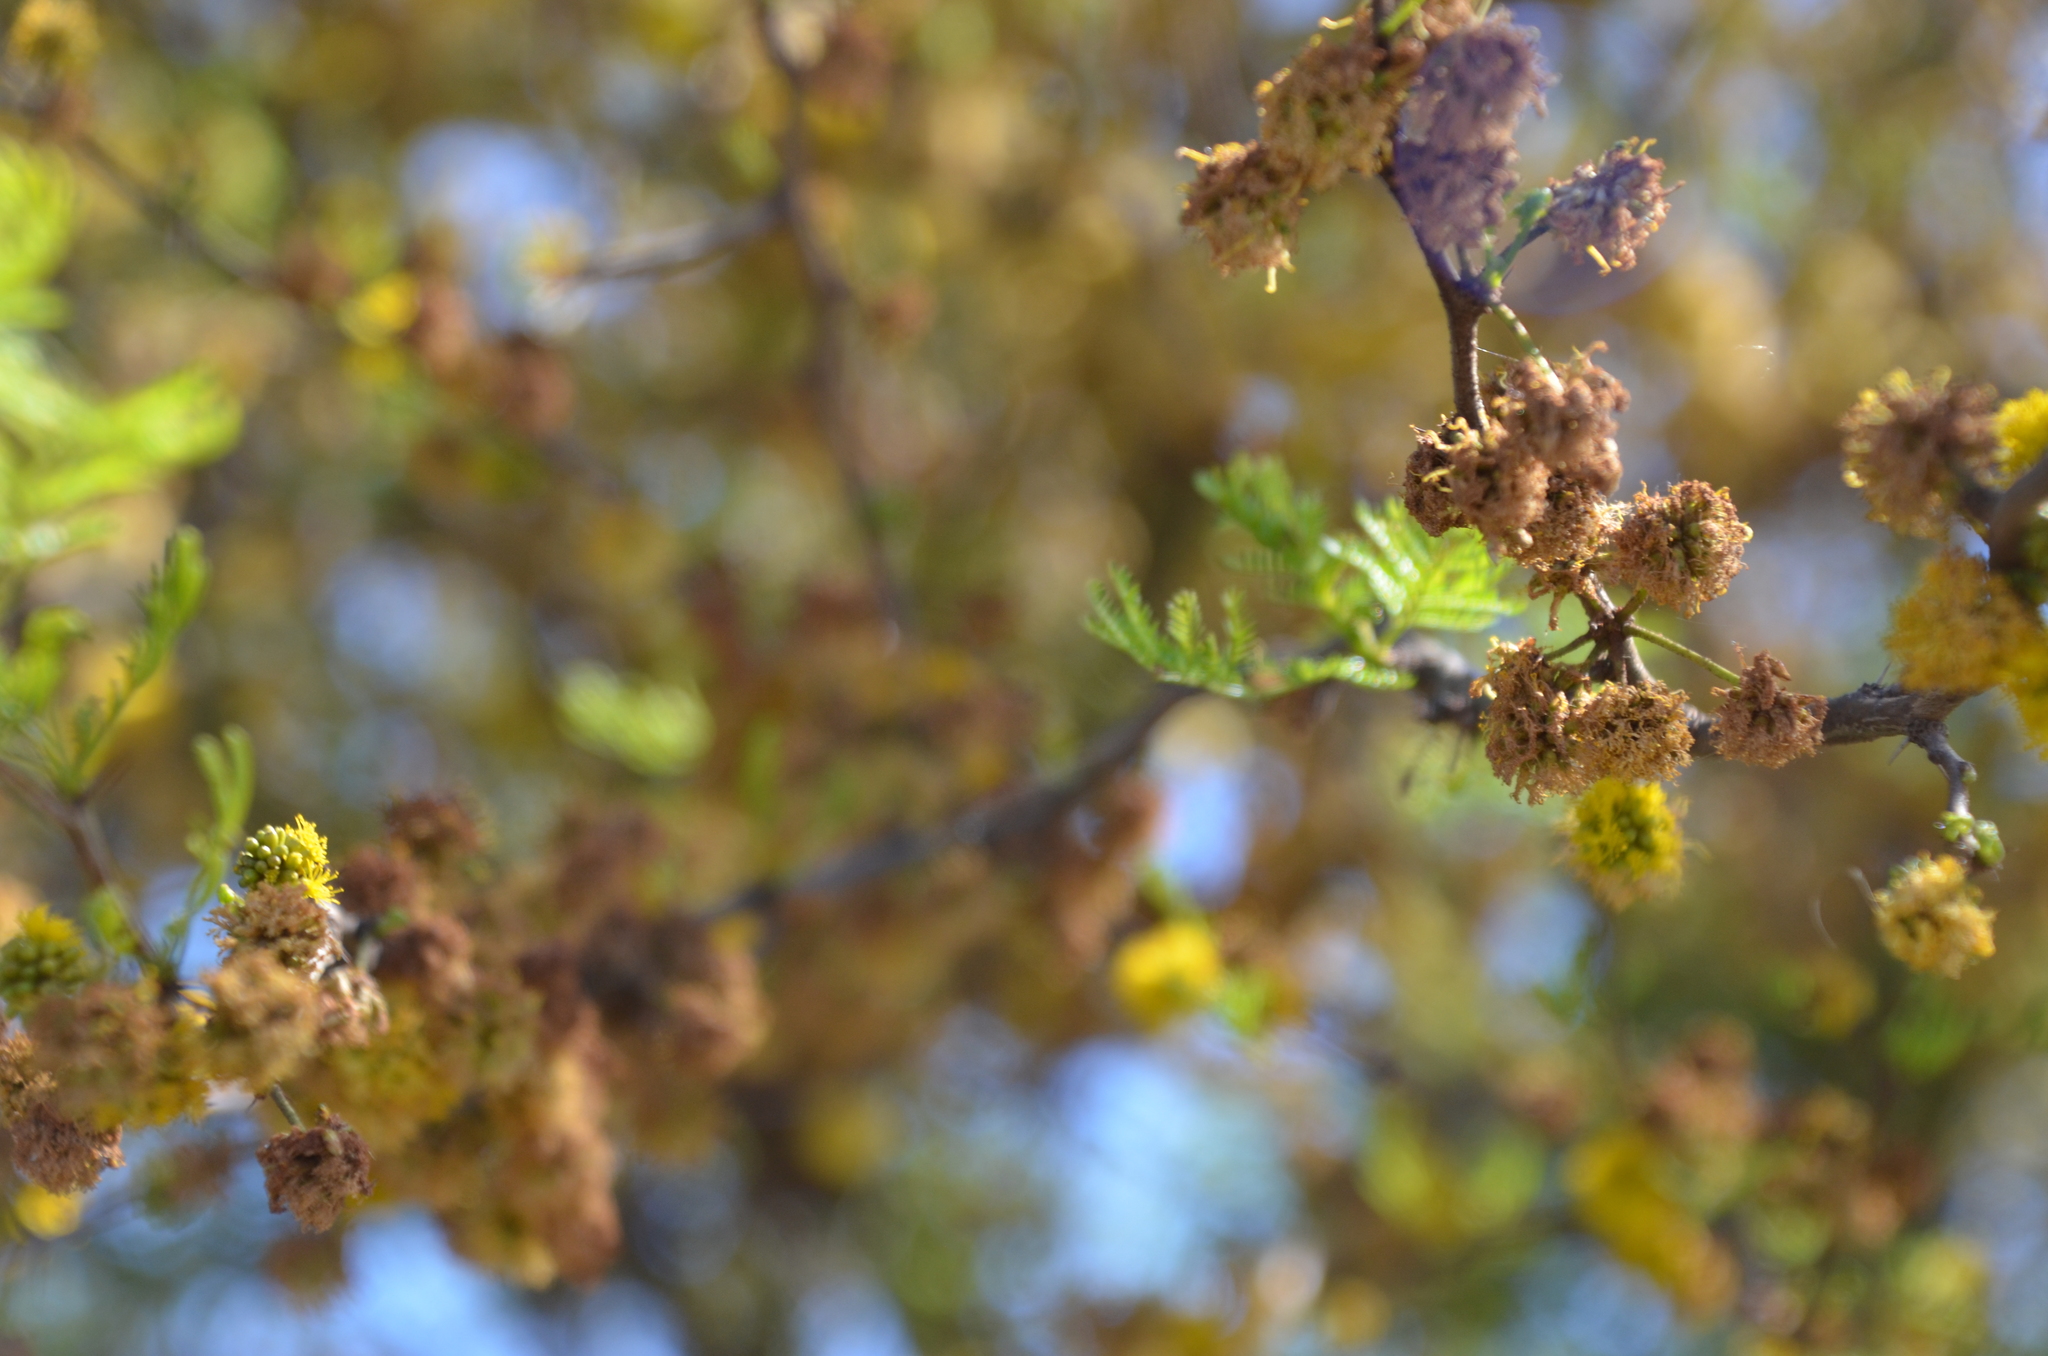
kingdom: Plantae
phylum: Tracheophyta
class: Magnoliopsida
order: Fabales
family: Fabaceae
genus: Vachellia
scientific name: Vachellia caven
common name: Roman cassie
